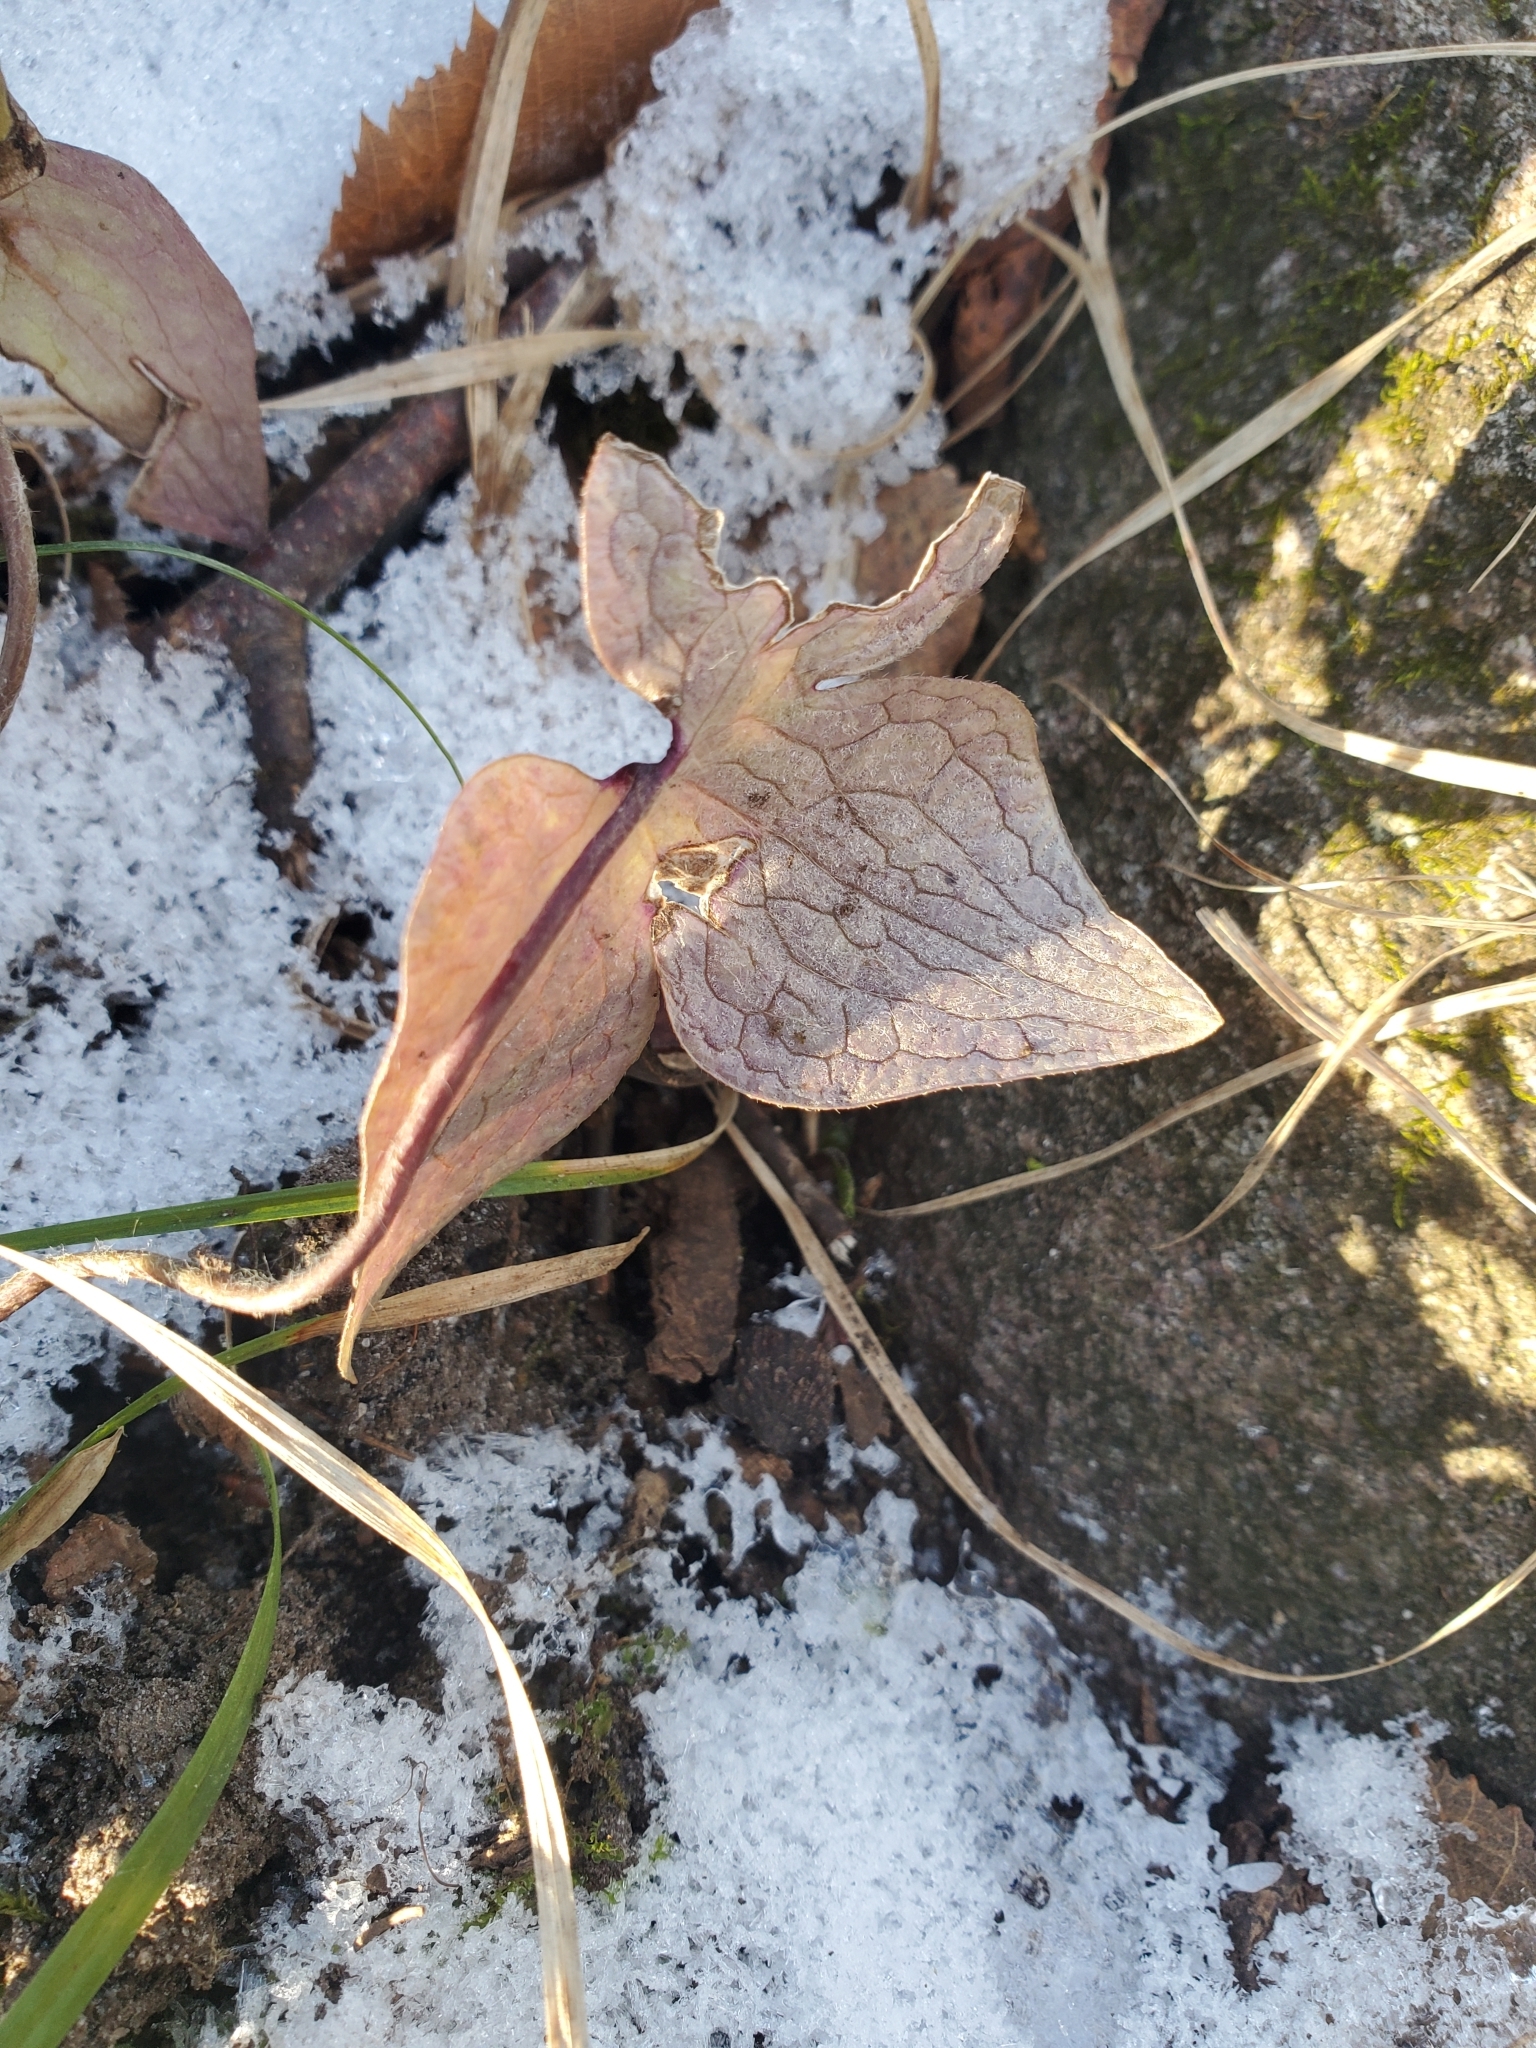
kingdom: Plantae
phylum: Tracheophyta
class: Magnoliopsida
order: Ranunculales
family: Ranunculaceae
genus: Hepatica
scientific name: Hepatica acutiloba
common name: Sharp-lobed hepatica
